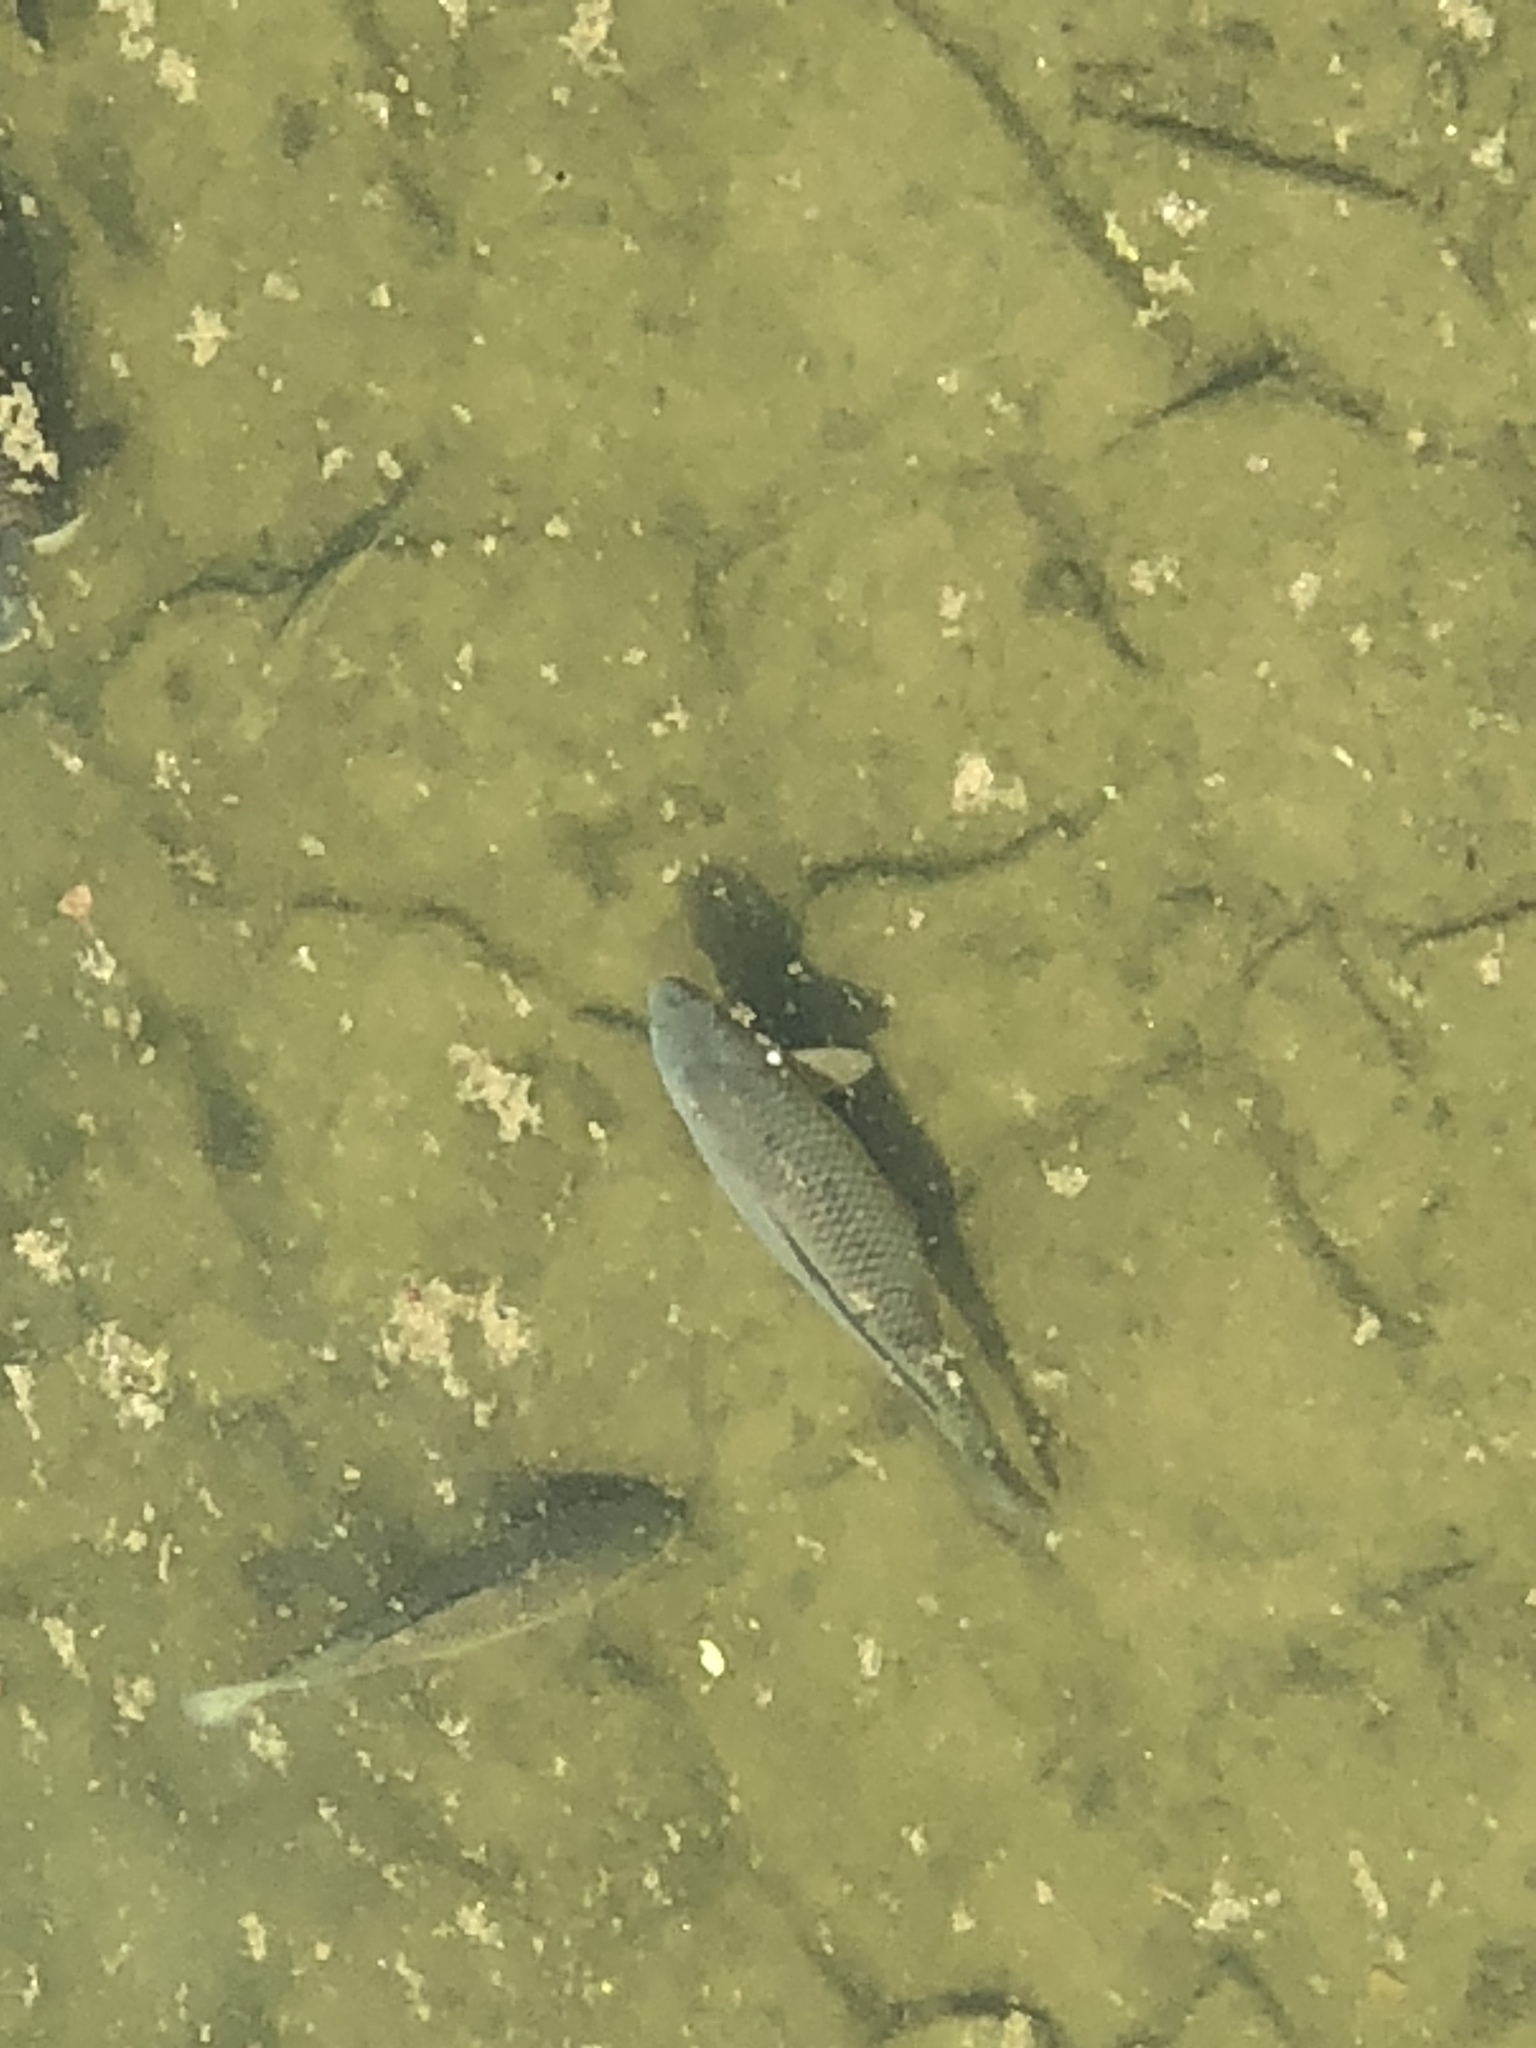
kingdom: Animalia
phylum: Chordata
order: Cypriniformes
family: Cyprinidae
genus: Cyprinus
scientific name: Cyprinus carpio
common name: Common carp
